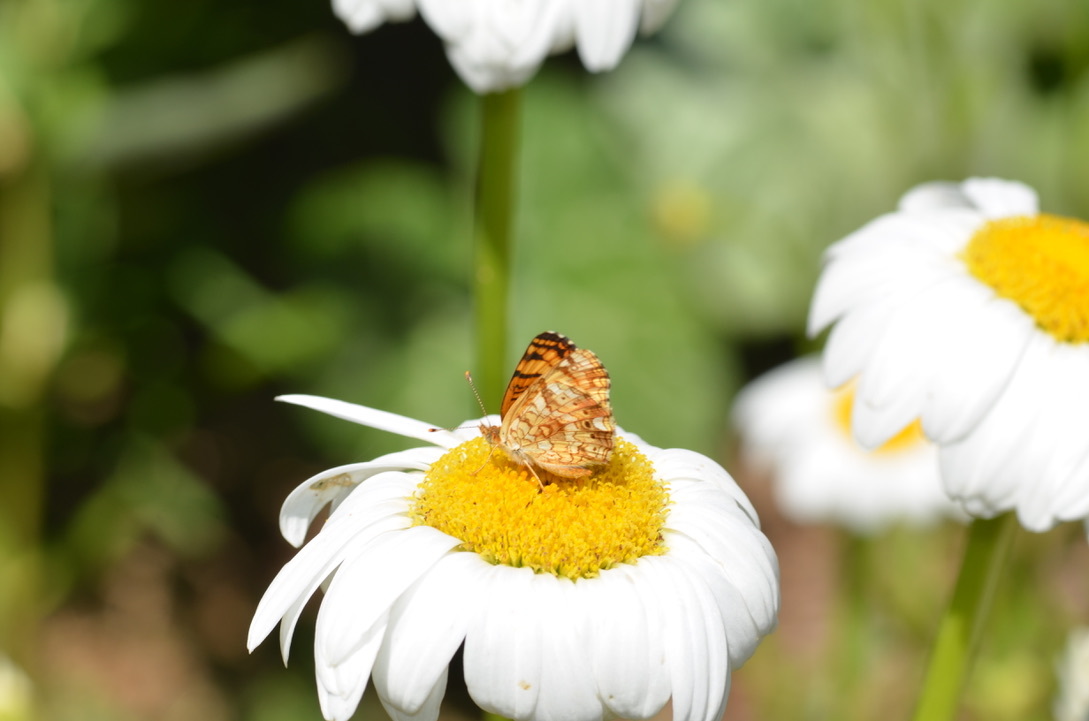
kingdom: Animalia
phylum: Arthropoda
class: Insecta
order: Lepidoptera
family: Nymphalidae
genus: Eresia
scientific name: Eresia aveyrona
